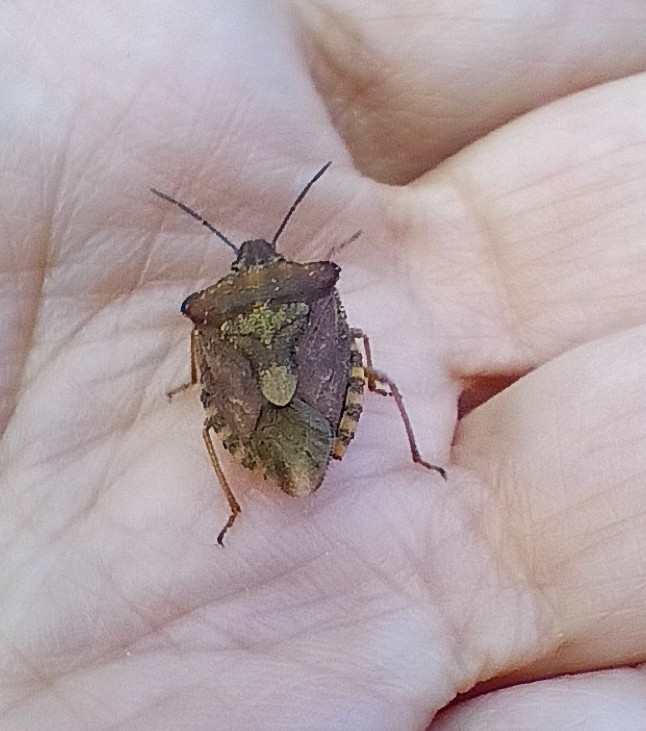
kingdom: Animalia
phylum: Arthropoda
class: Insecta
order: Hemiptera
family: Pentatomidae
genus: Carpocoris
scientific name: Carpocoris purpureipennis
